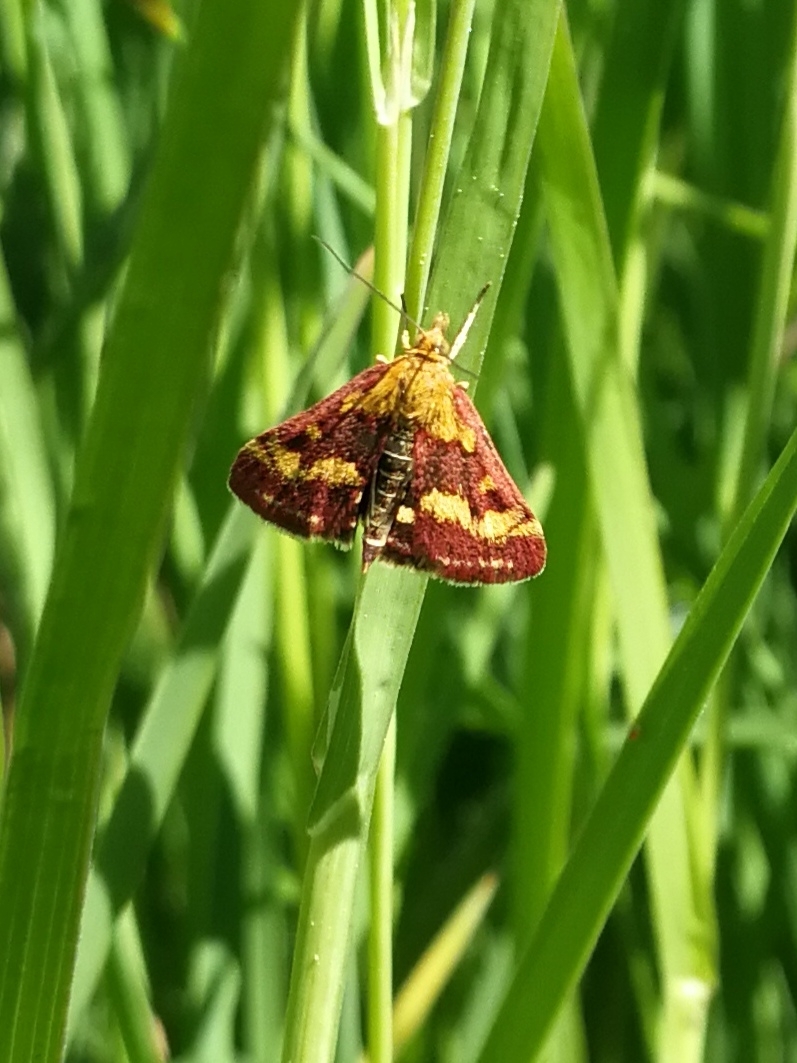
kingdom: Animalia
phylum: Arthropoda
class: Insecta
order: Lepidoptera
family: Crambidae
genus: Pyrausta
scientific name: Pyrausta purpuralis
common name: Common purple & gold
